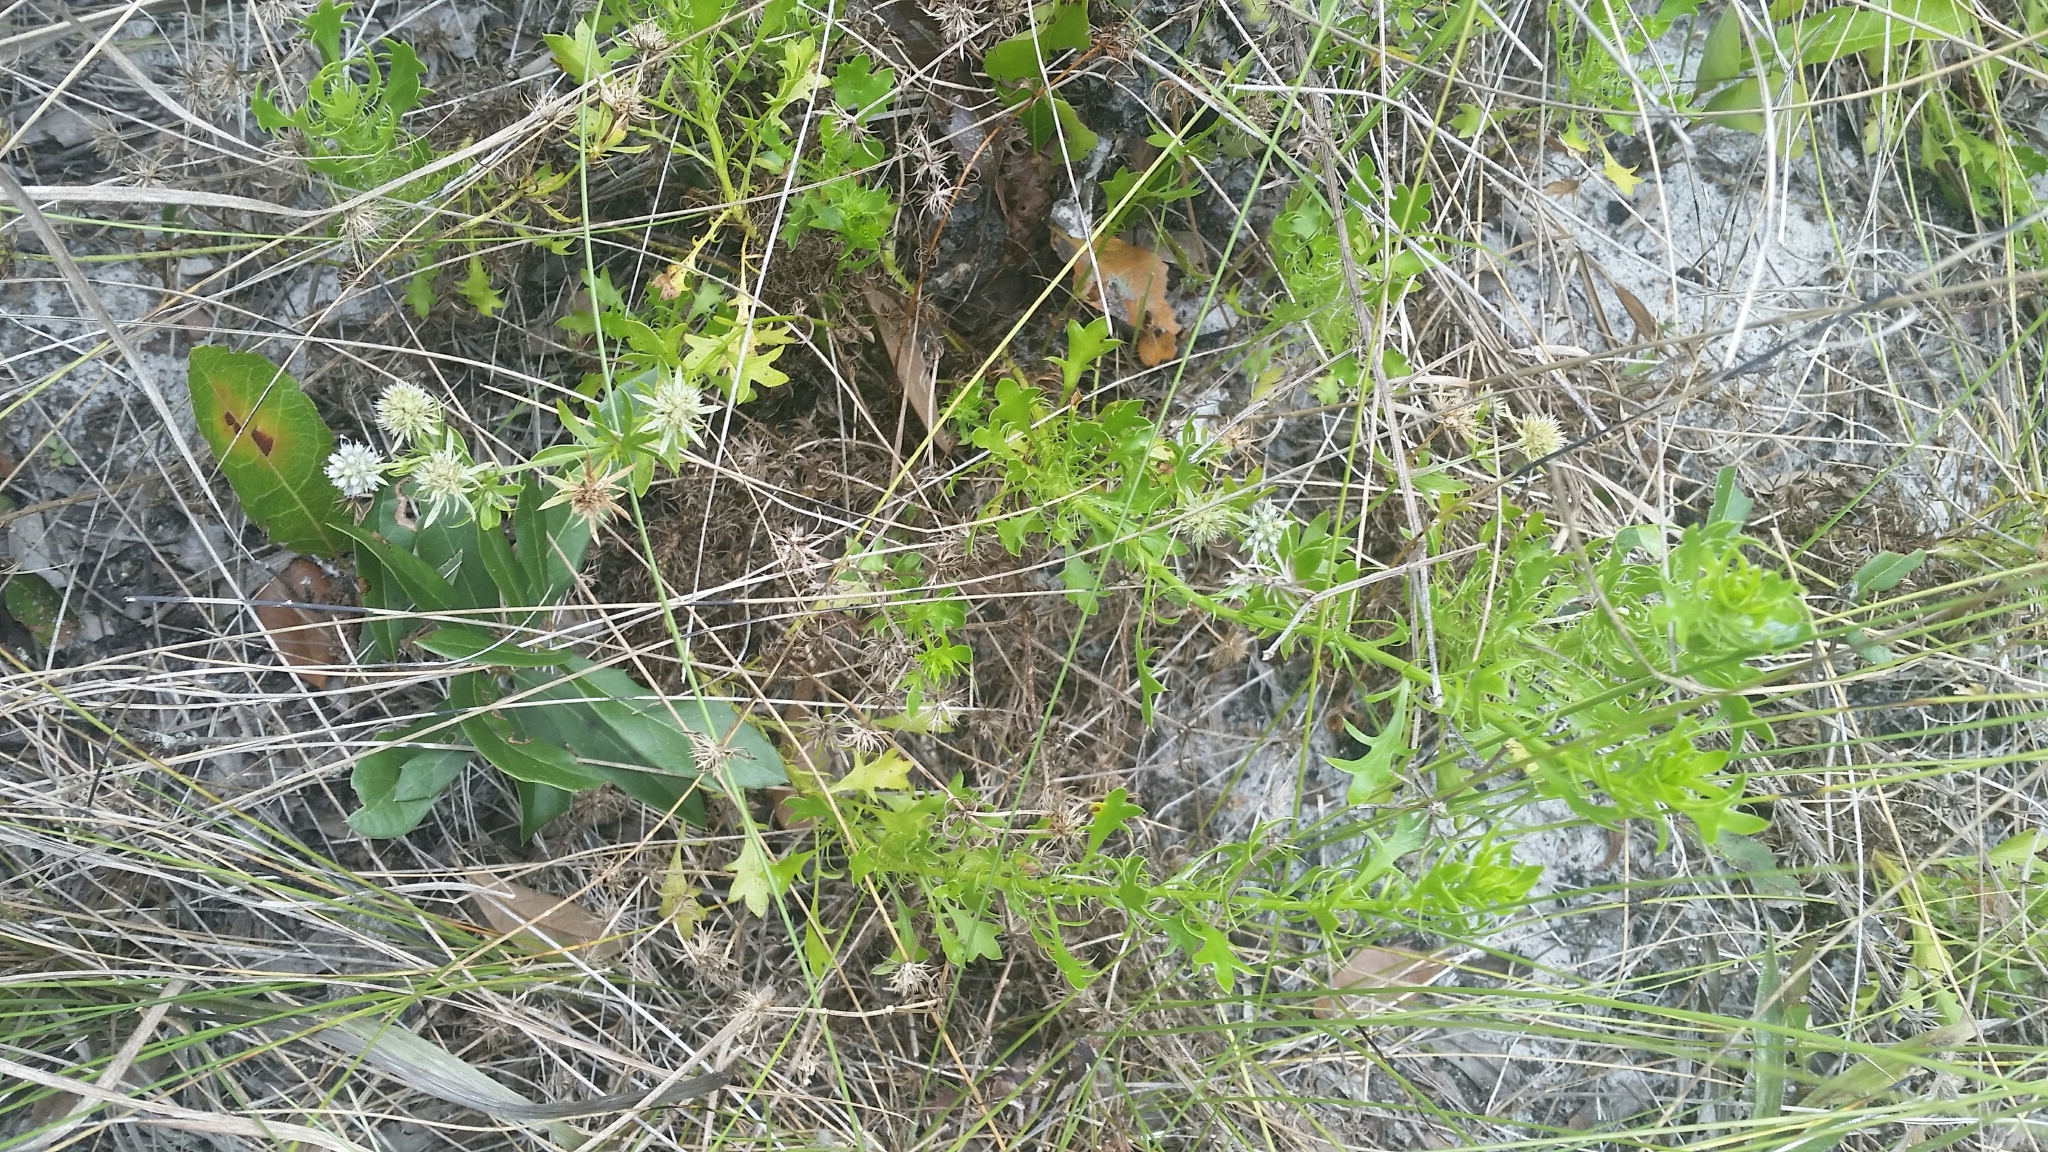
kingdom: Plantae
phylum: Tracheophyta
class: Magnoliopsida
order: Apiales
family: Apiaceae
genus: Eryngium
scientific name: Eryngium aromaticum
